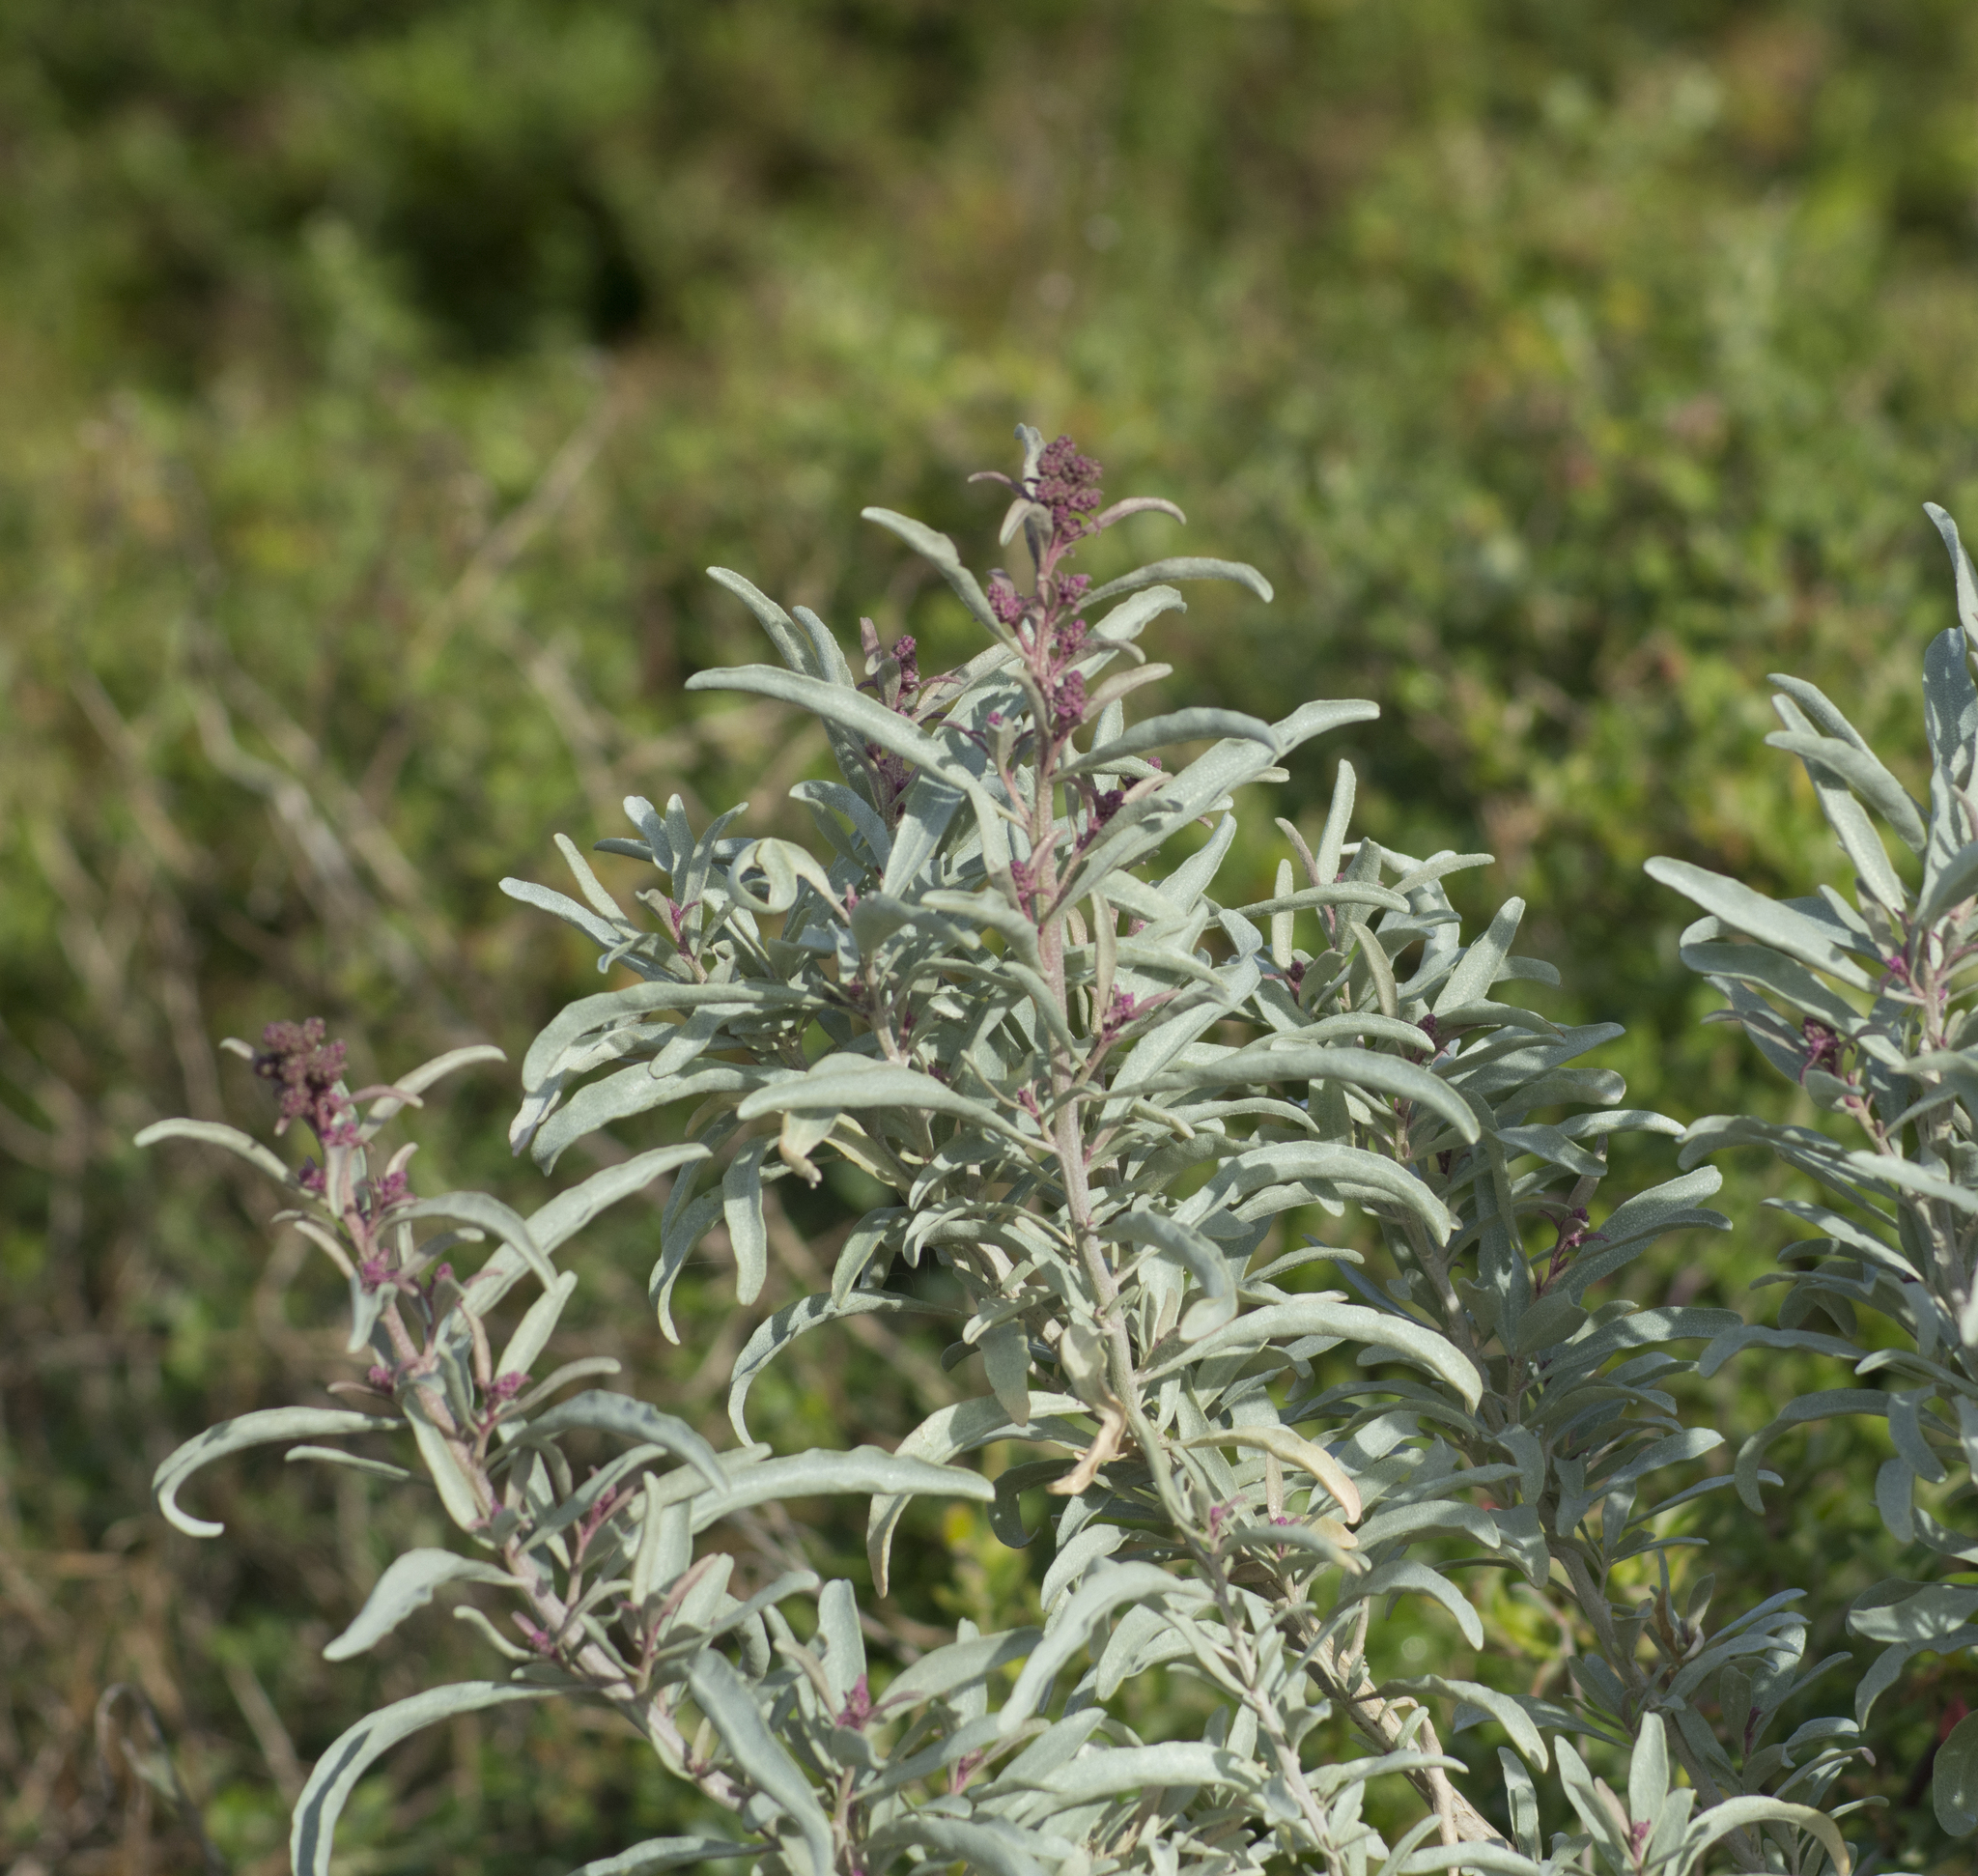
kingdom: Plantae
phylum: Tracheophyta
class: Magnoliopsida
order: Caryophyllales
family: Amaranthaceae
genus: Atriplex
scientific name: Atriplex cinerea
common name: Grey saltbush
